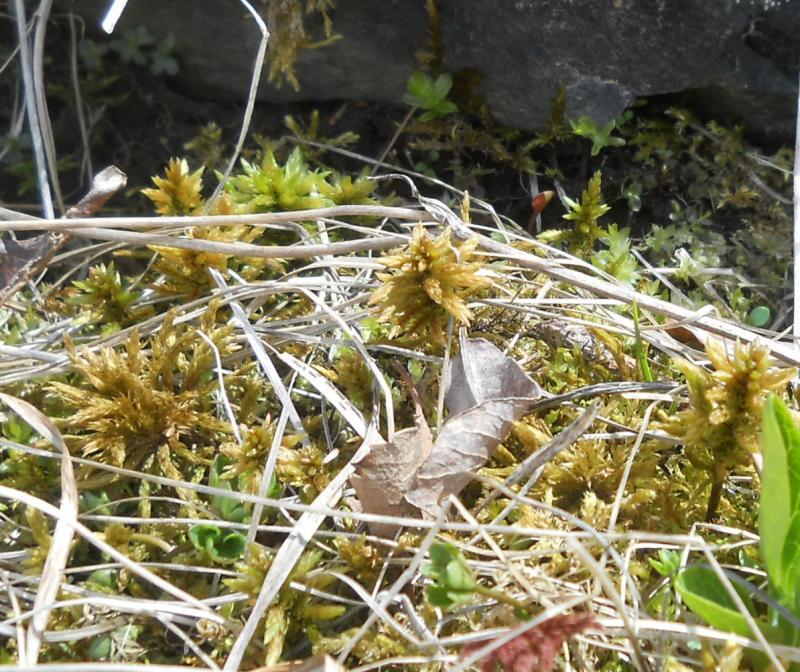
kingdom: Plantae
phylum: Bryophyta
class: Bryopsida
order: Hypnales
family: Climaciaceae
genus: Climacium
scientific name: Climacium dendroides
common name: Northern tree moss
